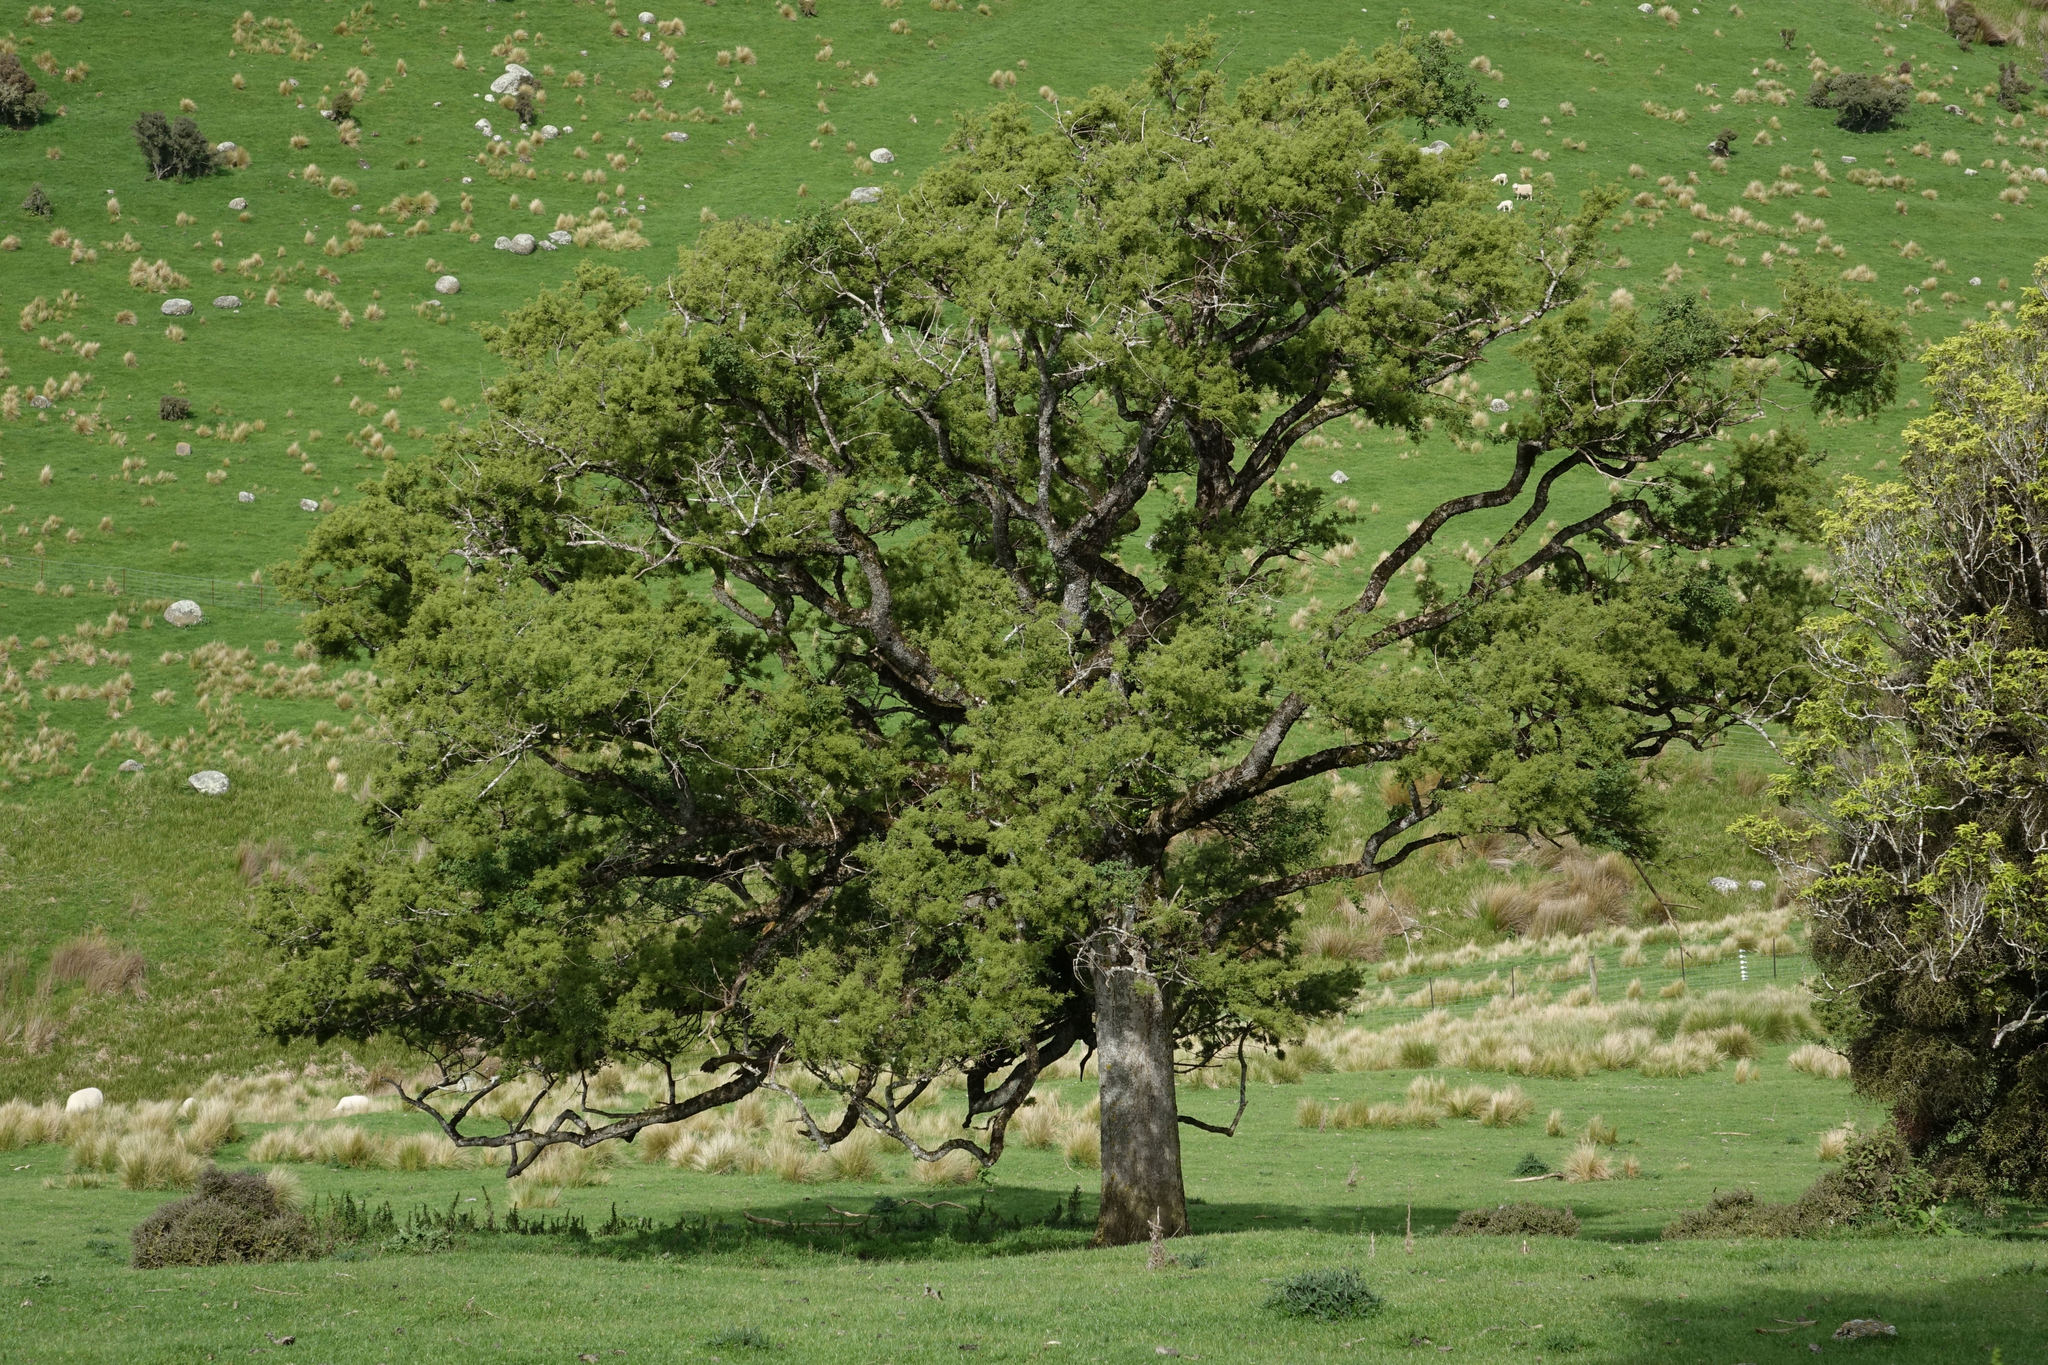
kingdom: Plantae
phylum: Tracheophyta
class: Magnoliopsida
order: Malvales
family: Malvaceae
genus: Plagianthus
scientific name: Plagianthus regius
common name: Manatu
